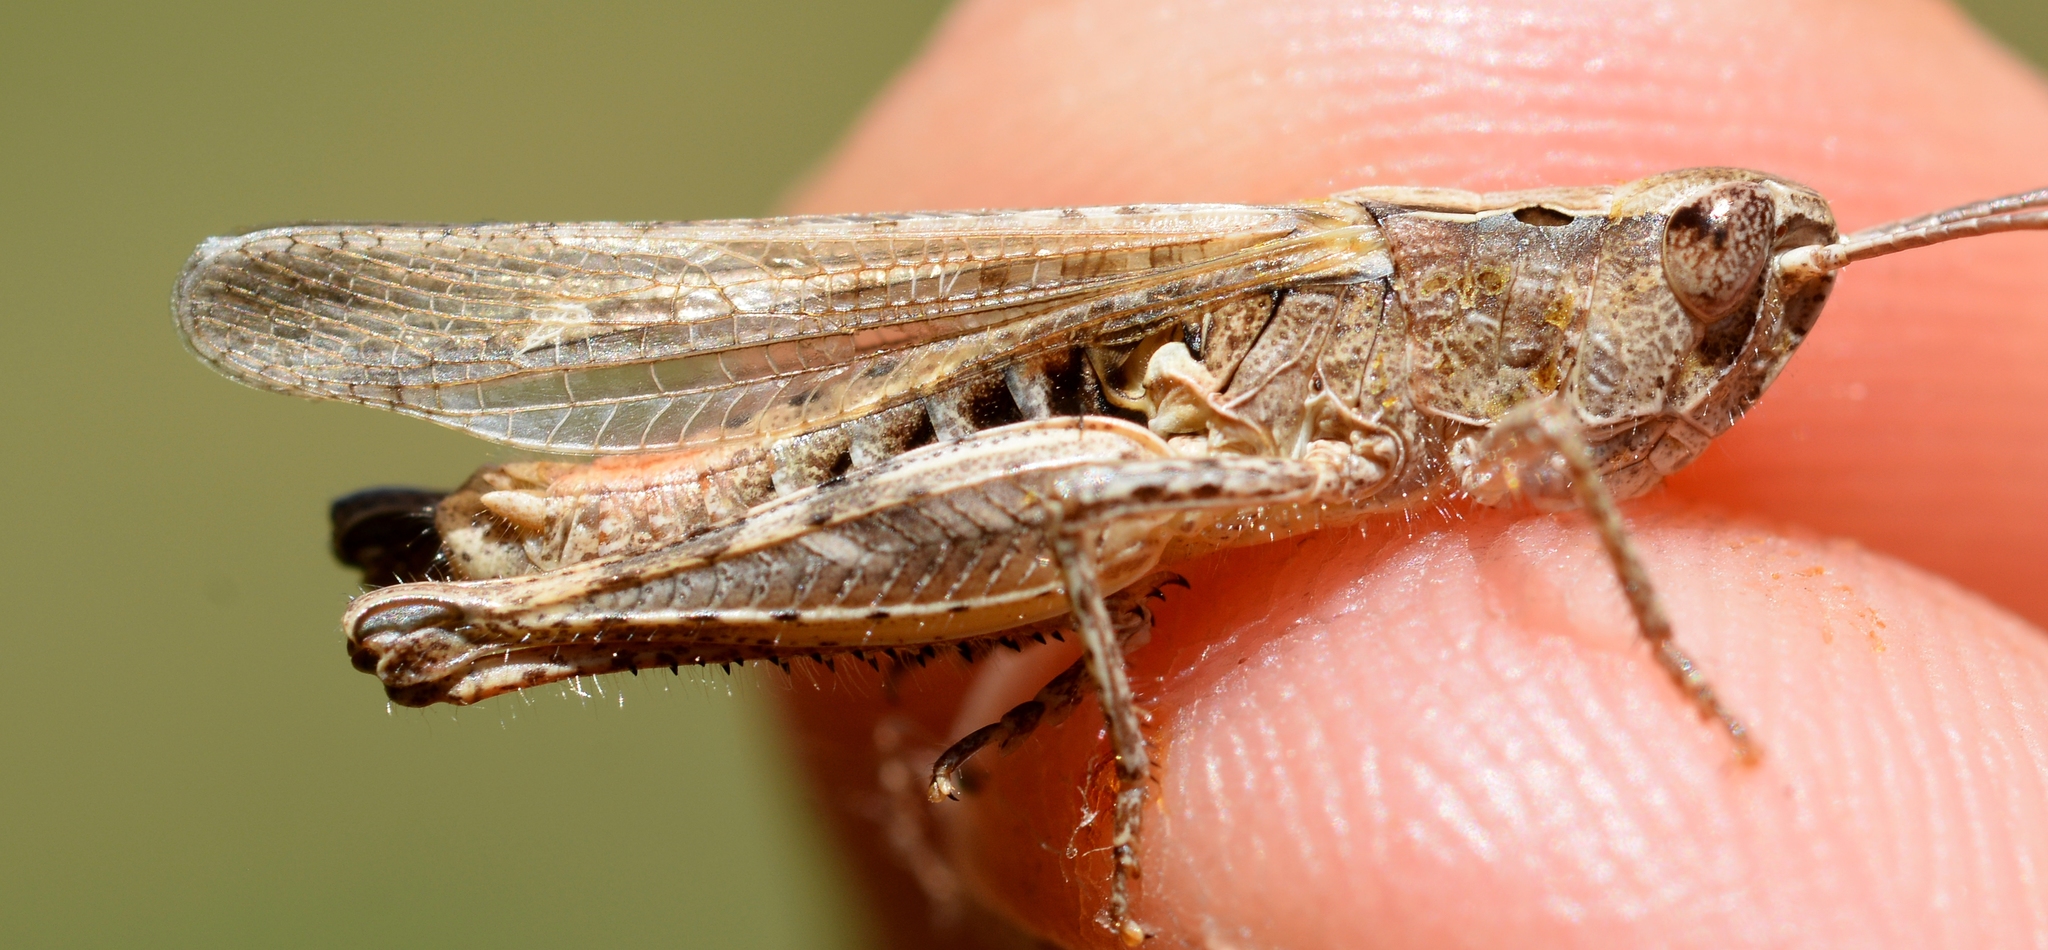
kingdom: Animalia
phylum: Arthropoda
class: Insecta
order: Orthoptera
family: Acrididae
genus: Chorthippus
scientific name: Chorthippus mollis
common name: Lesser field grasshopper
